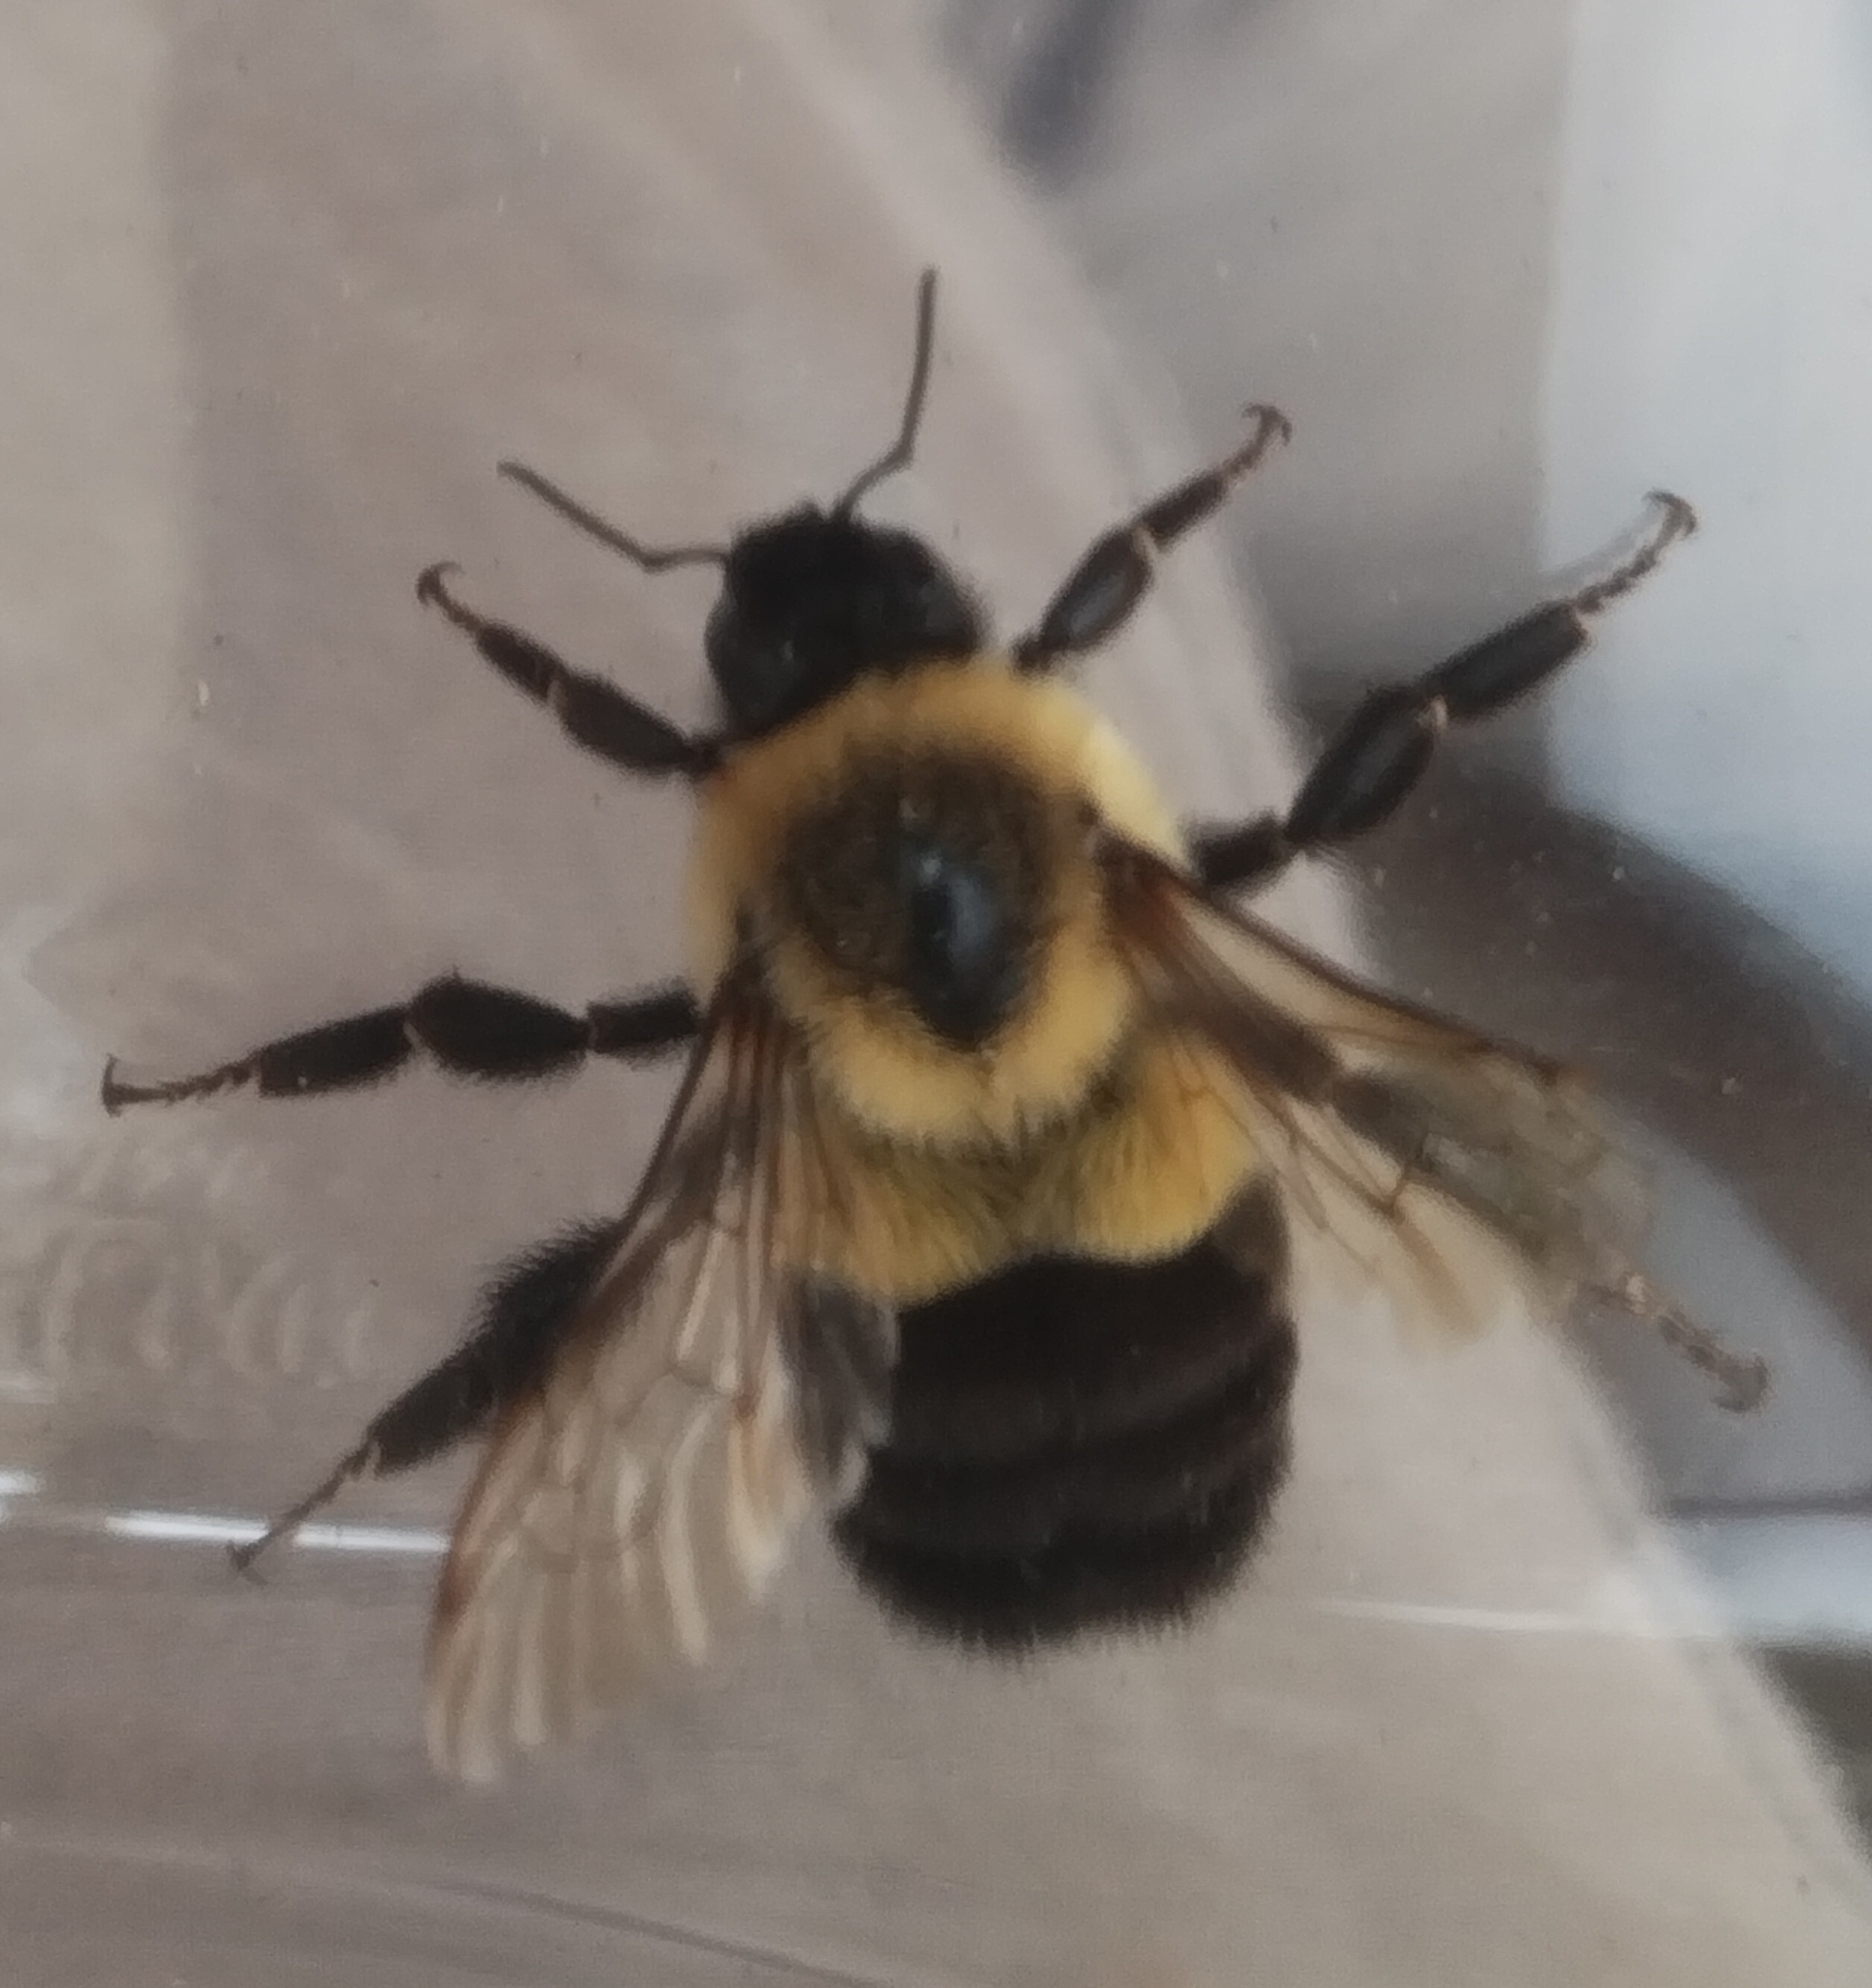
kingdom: Animalia
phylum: Arthropoda
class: Insecta
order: Hymenoptera
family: Apidae
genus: Bombus
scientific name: Bombus impatiens
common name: Common eastern bumble bee
